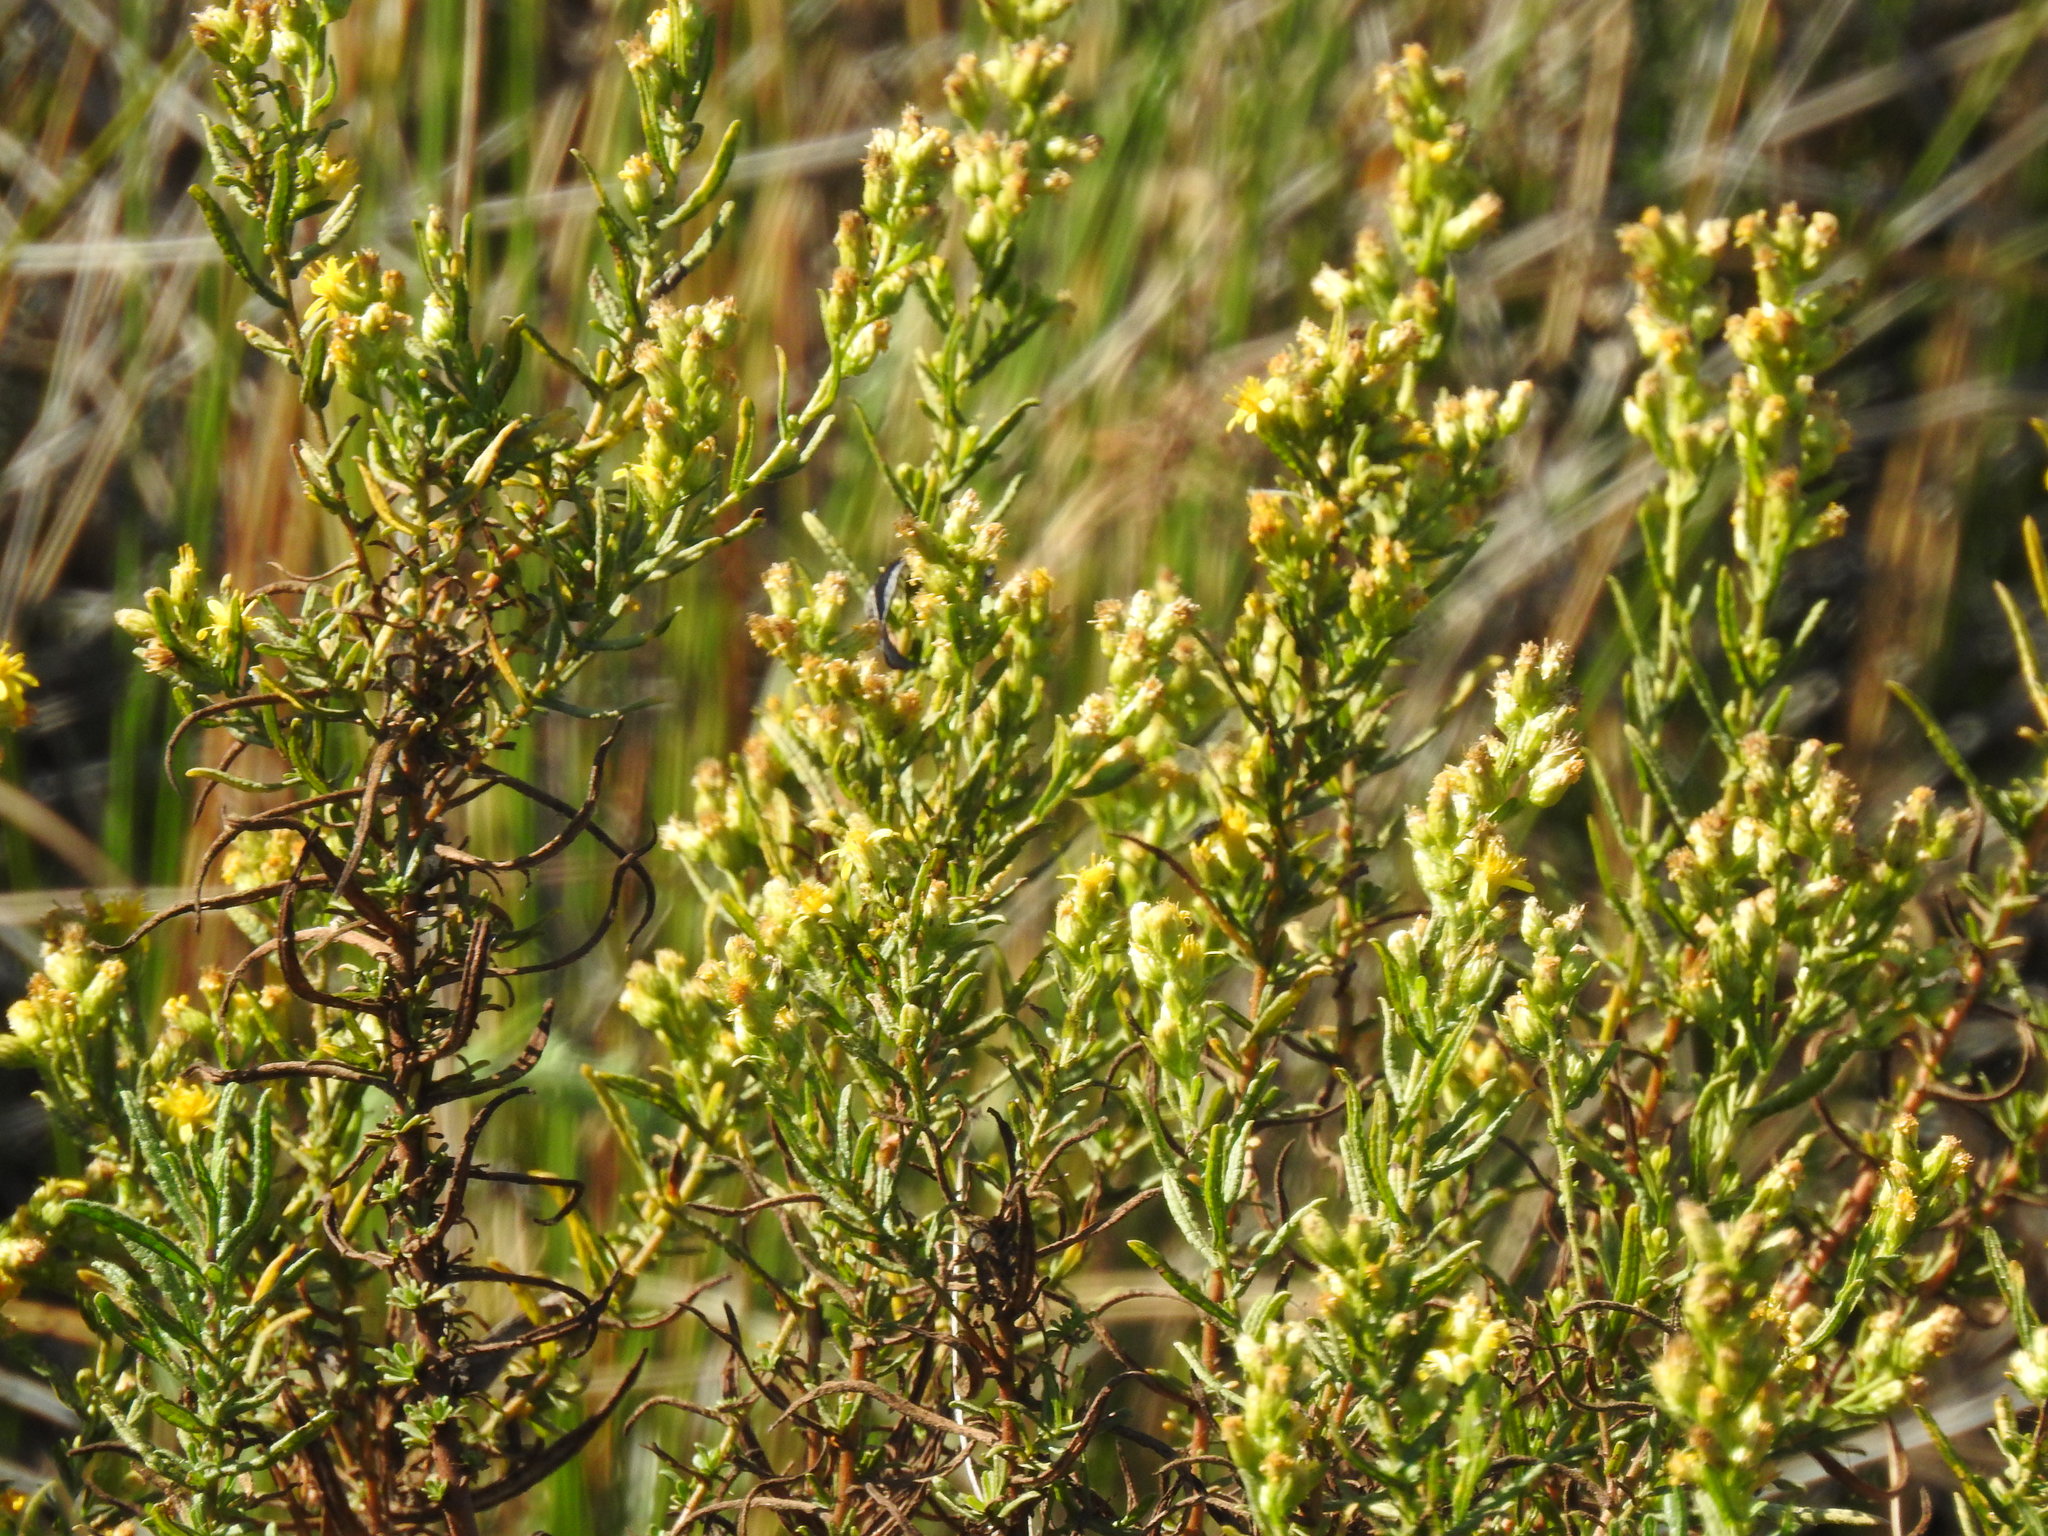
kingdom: Plantae
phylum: Tracheophyta
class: Magnoliopsida
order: Asterales
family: Asteraceae
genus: Dittrichia
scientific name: Dittrichia viscosa
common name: Woody fleabane
